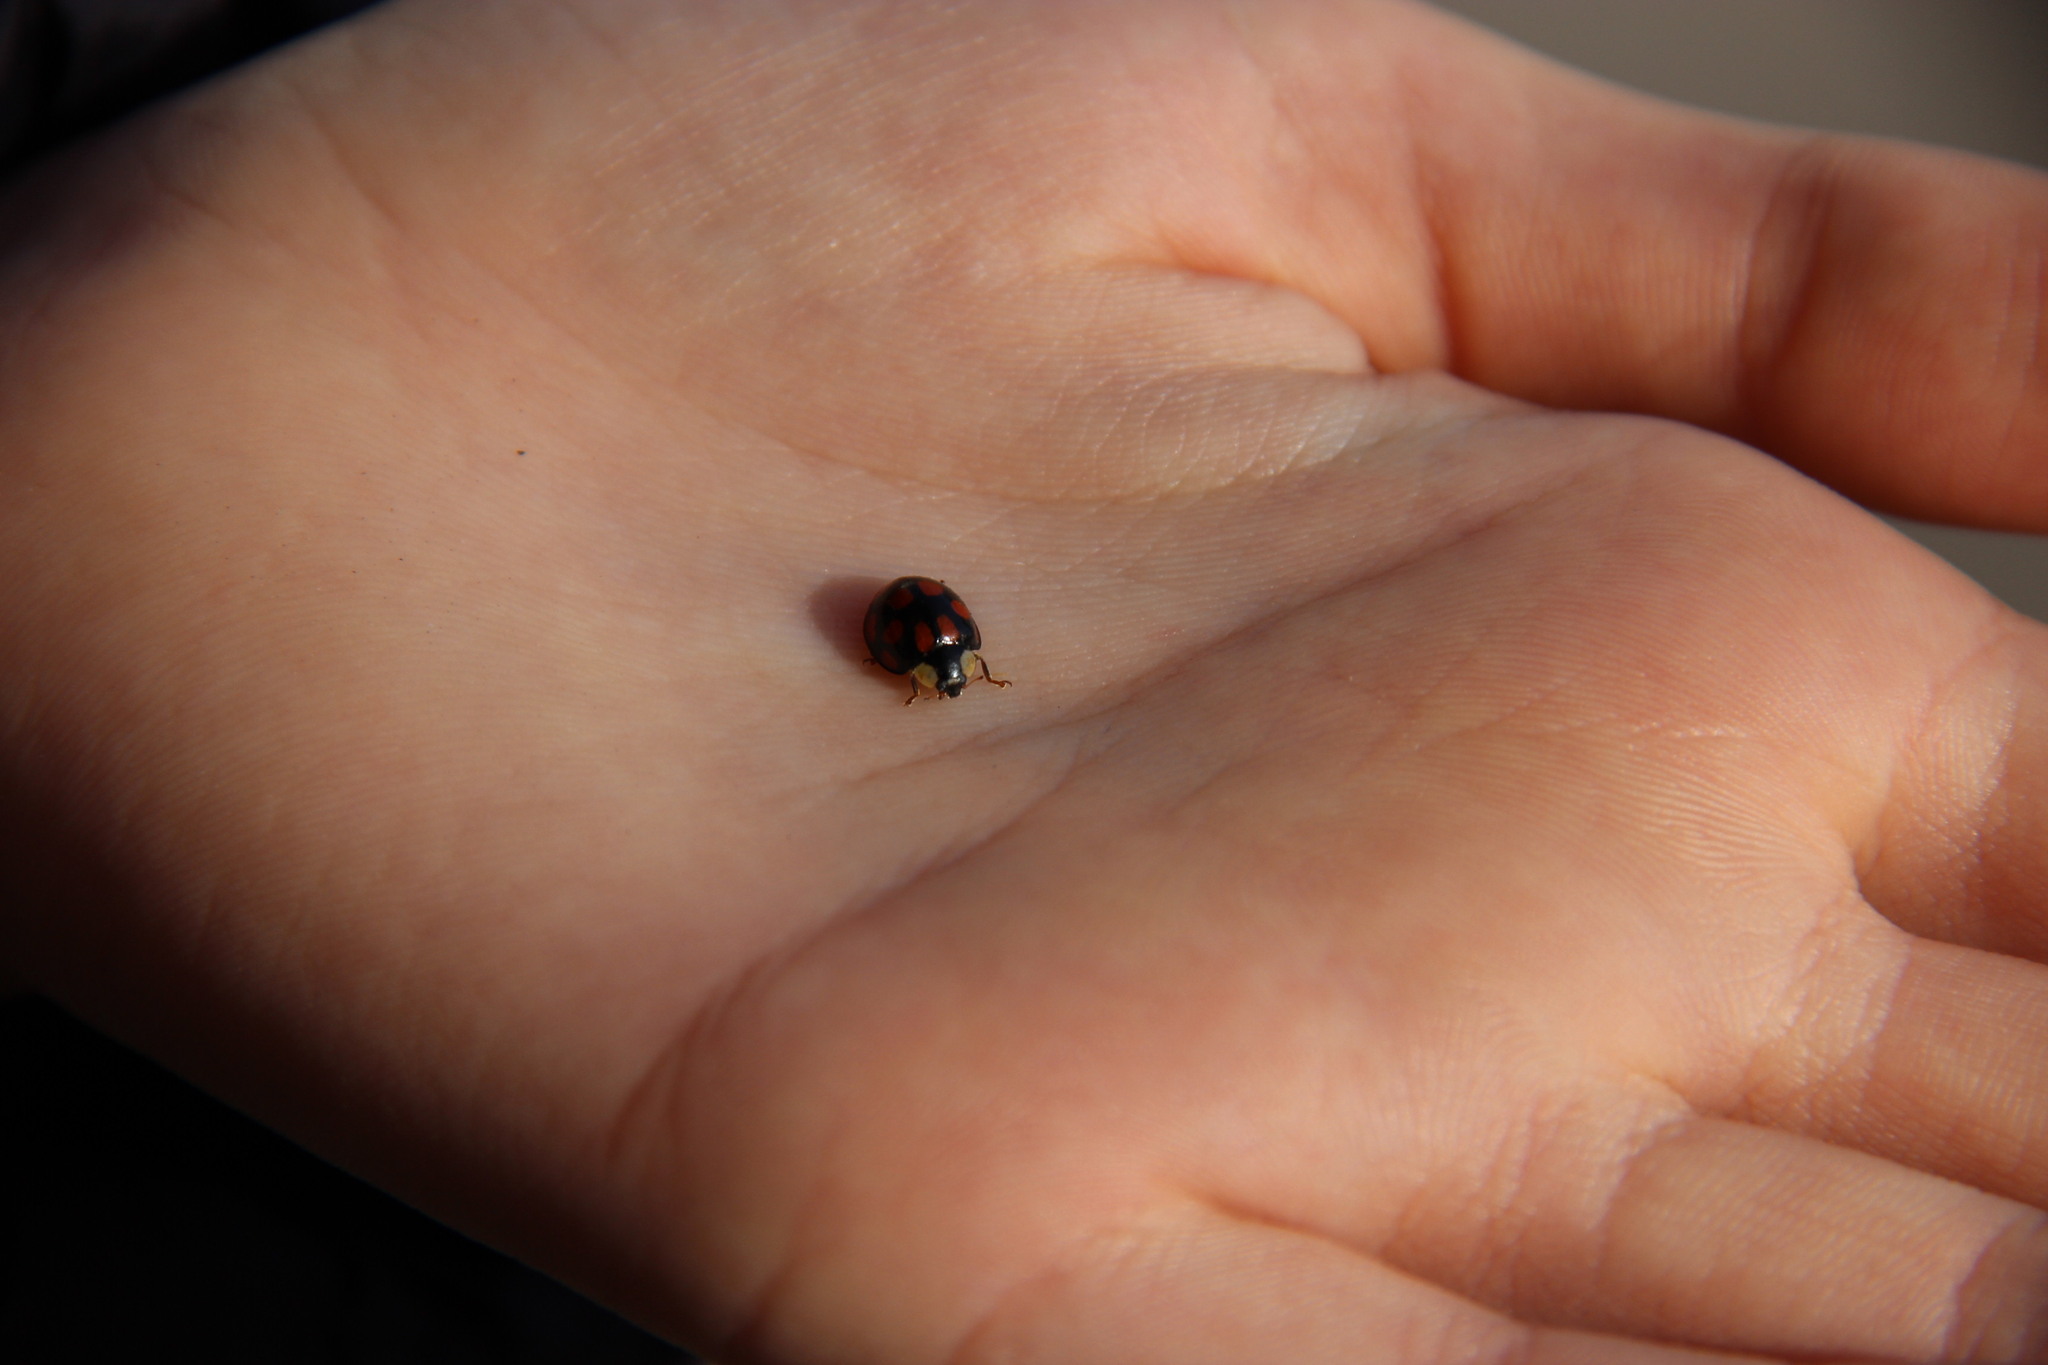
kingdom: Animalia
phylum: Arthropoda
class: Insecta
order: Coleoptera
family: Coccinellidae
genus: Harmonia
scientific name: Harmonia axyridis
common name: Harlequin ladybird
